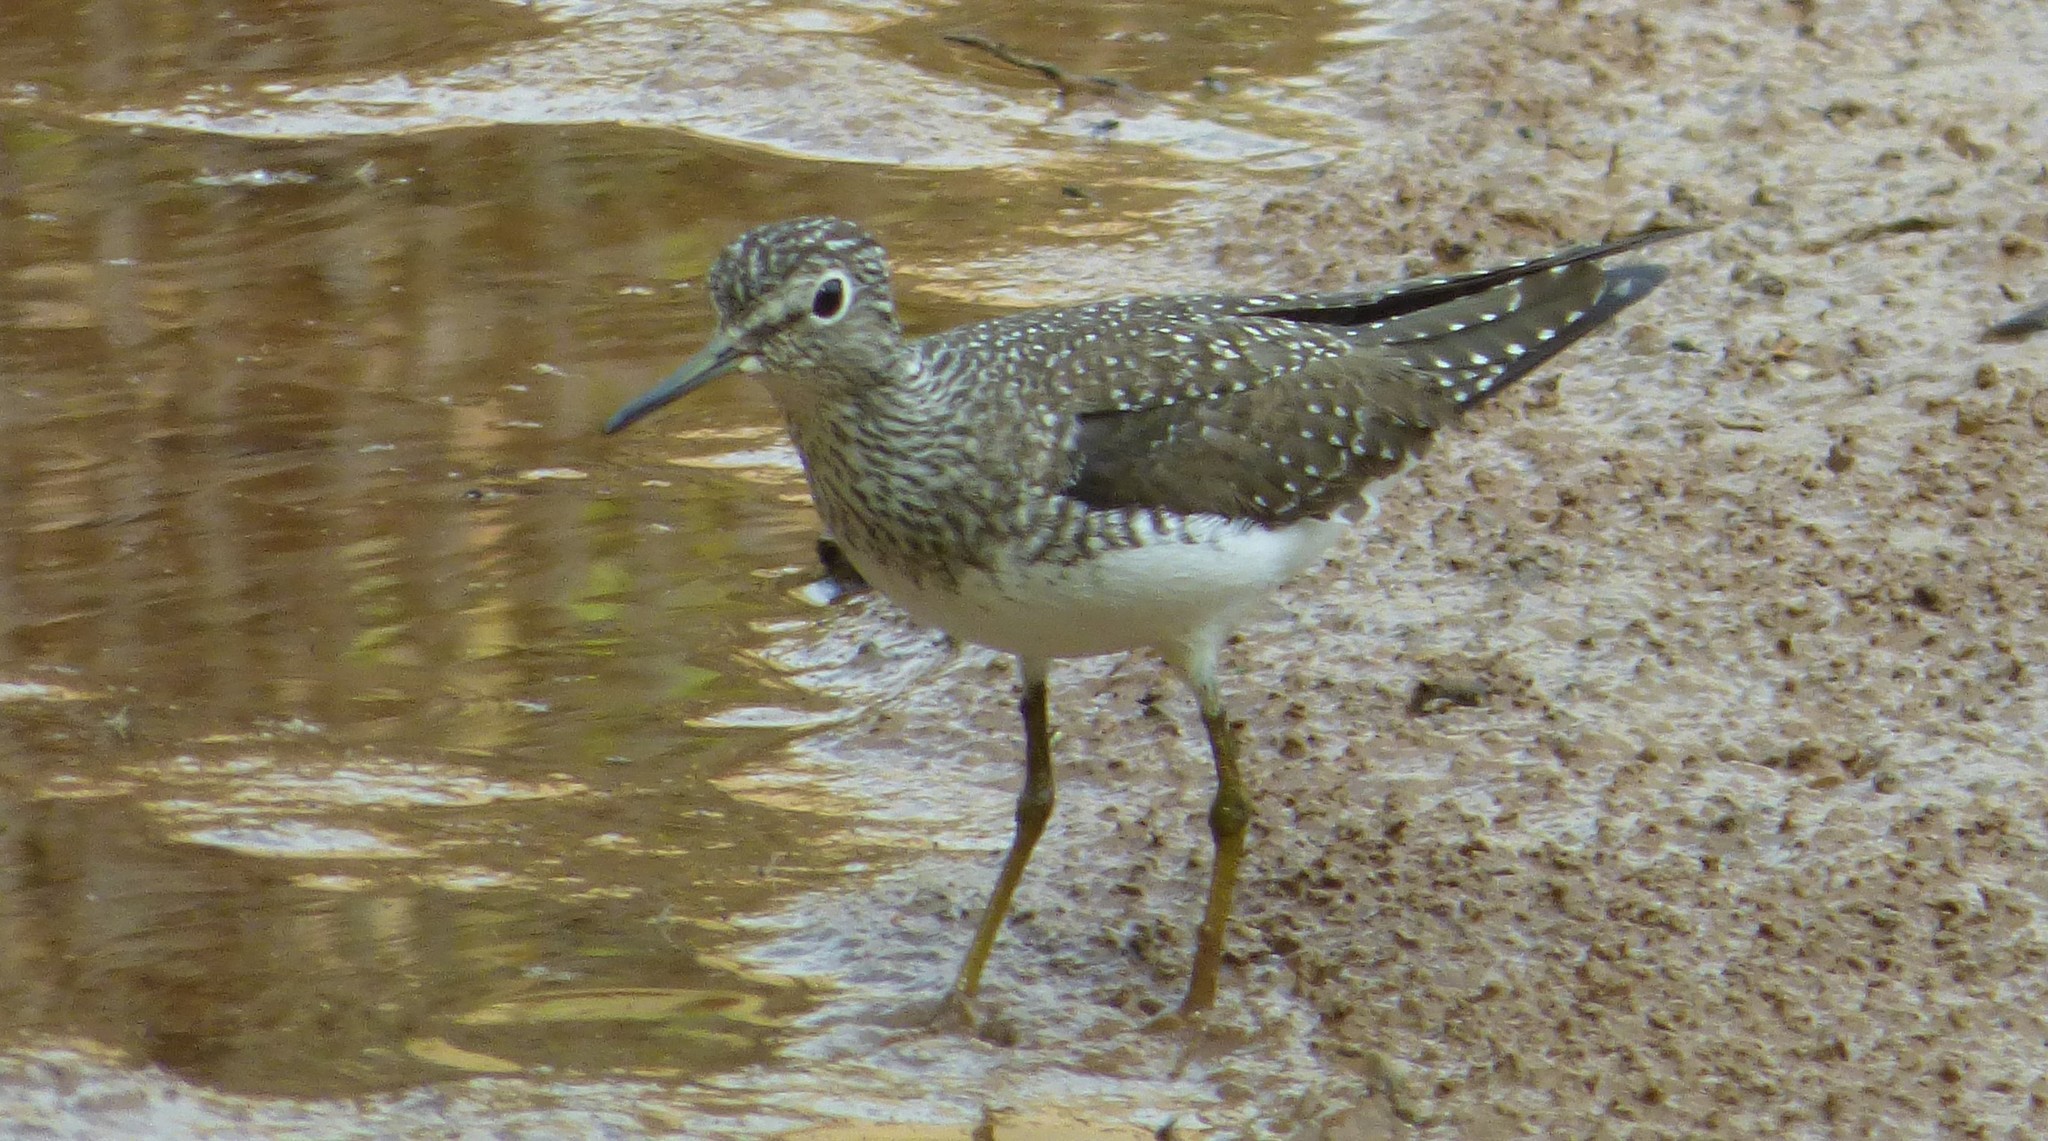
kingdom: Animalia
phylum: Chordata
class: Aves
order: Charadriiformes
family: Scolopacidae
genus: Tringa
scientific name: Tringa solitaria
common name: Solitary sandpiper
